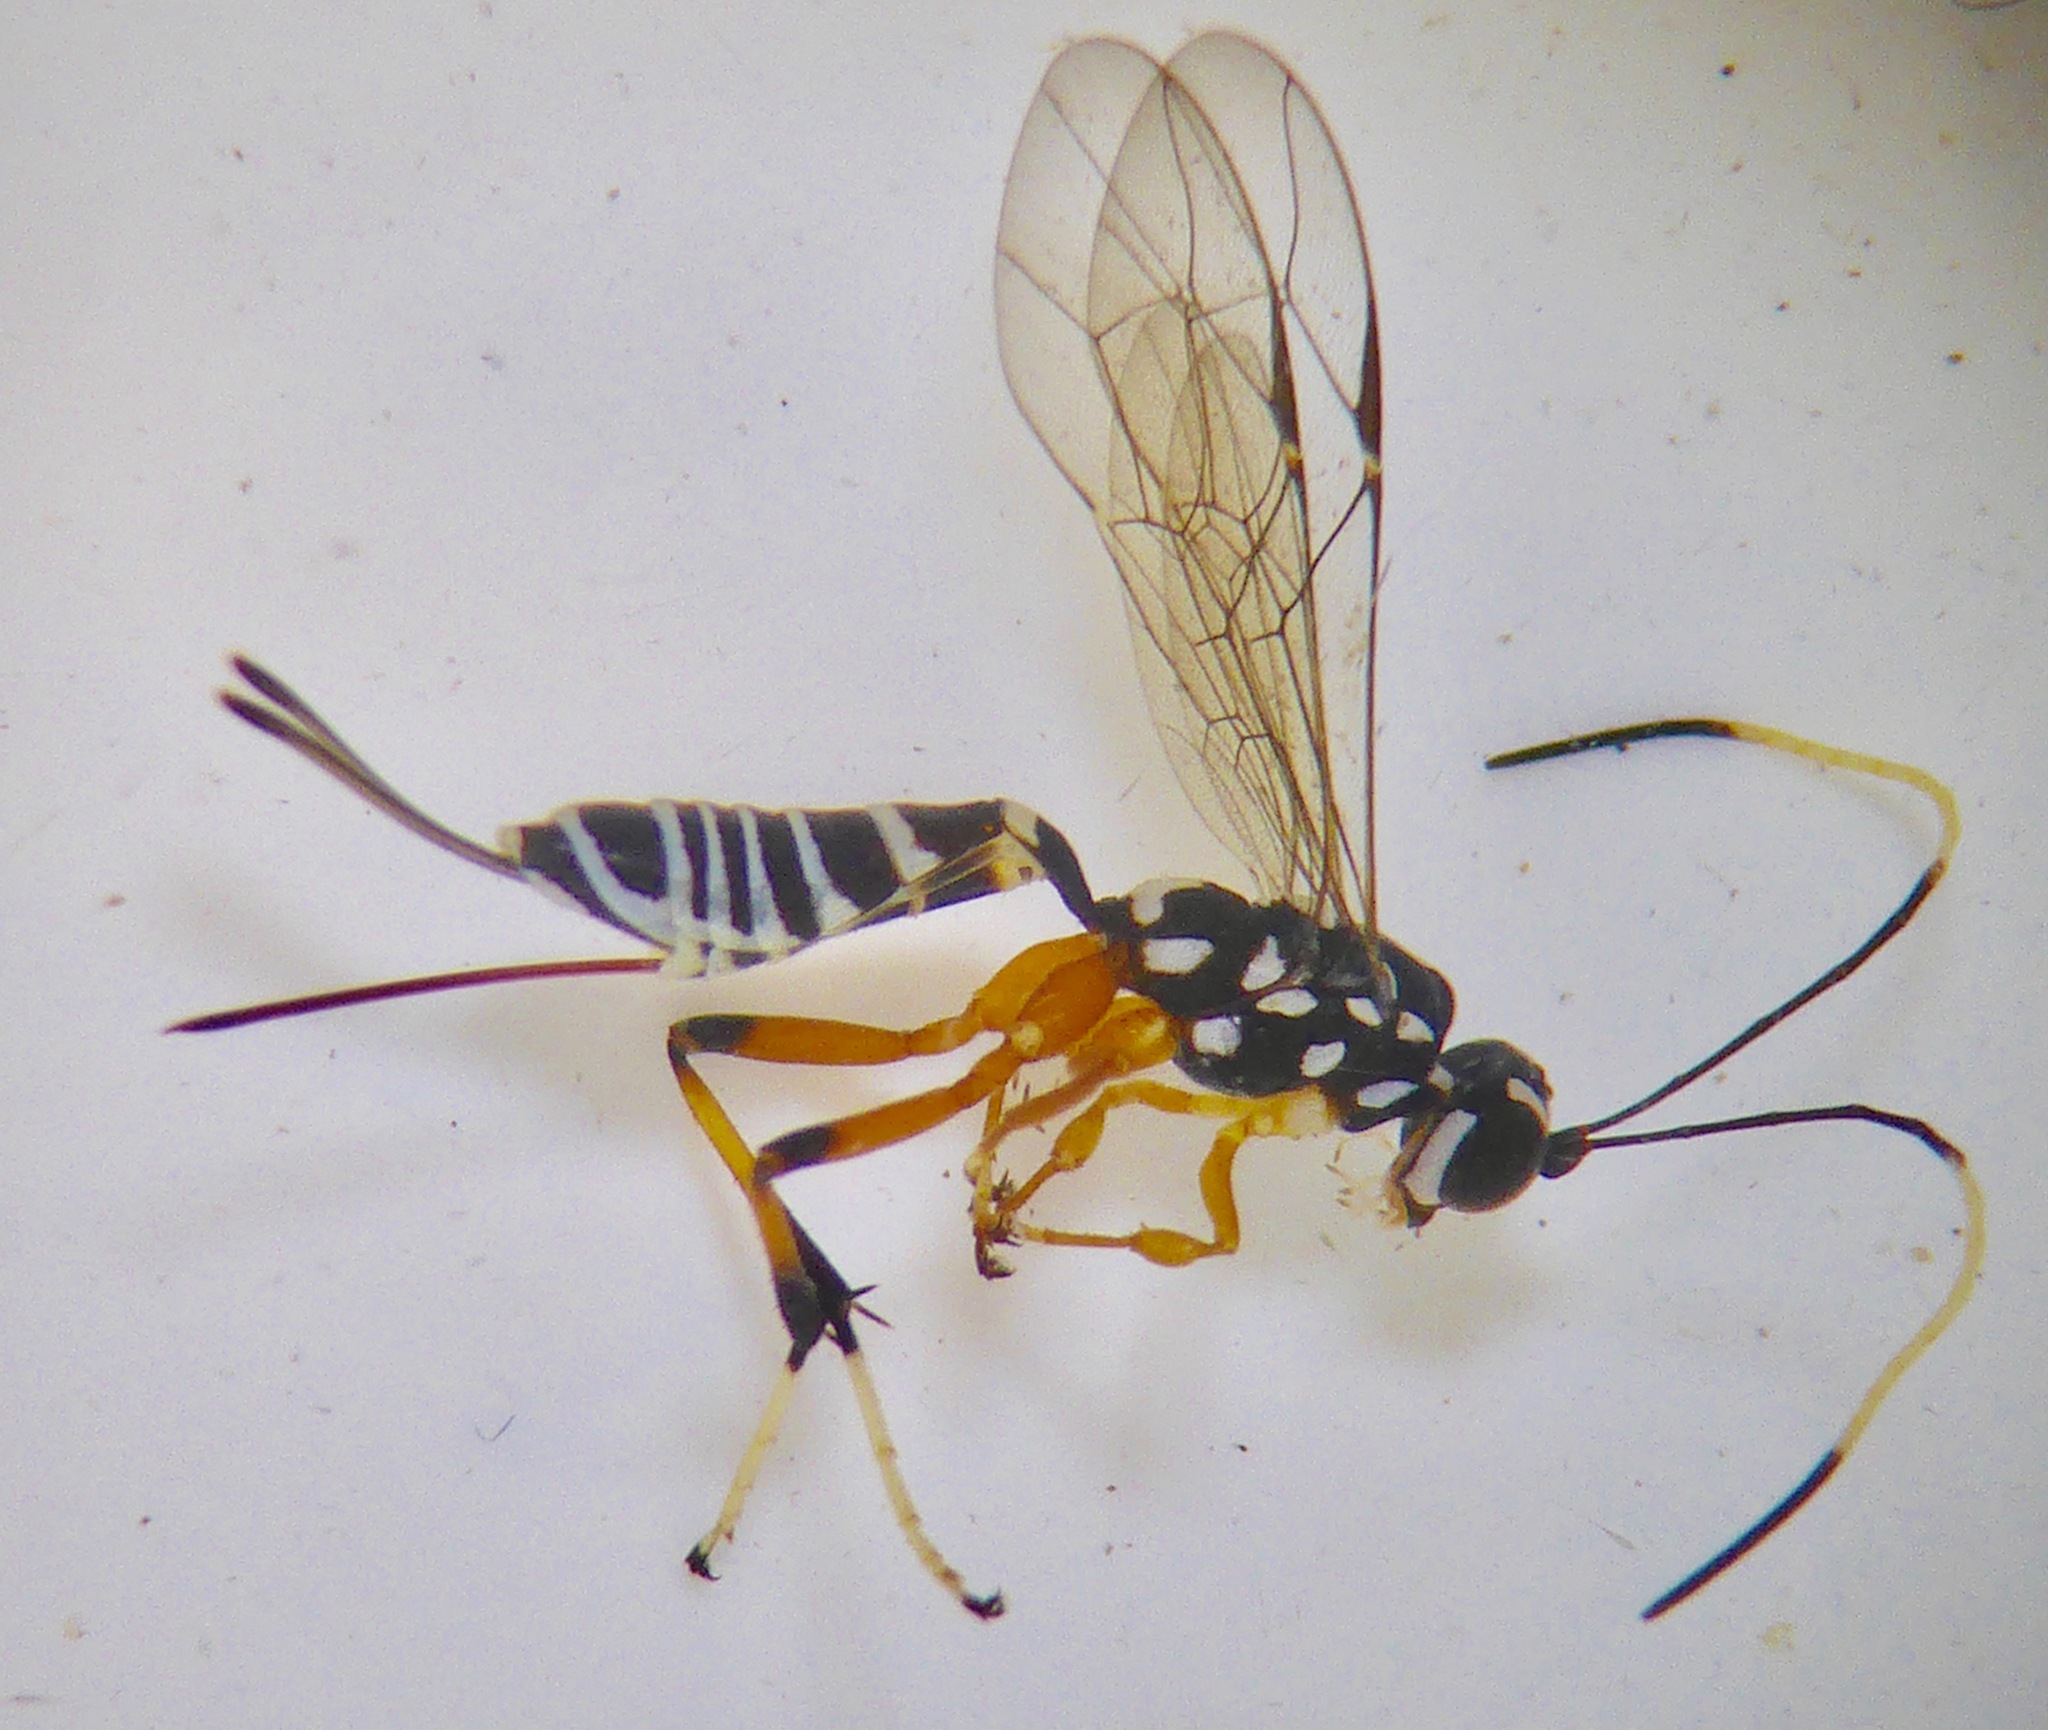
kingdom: Animalia
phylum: Arthropoda
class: Insecta
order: Hymenoptera
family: Ichneumonidae
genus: Xanthocryptus
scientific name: Xanthocryptus novozealandicus
